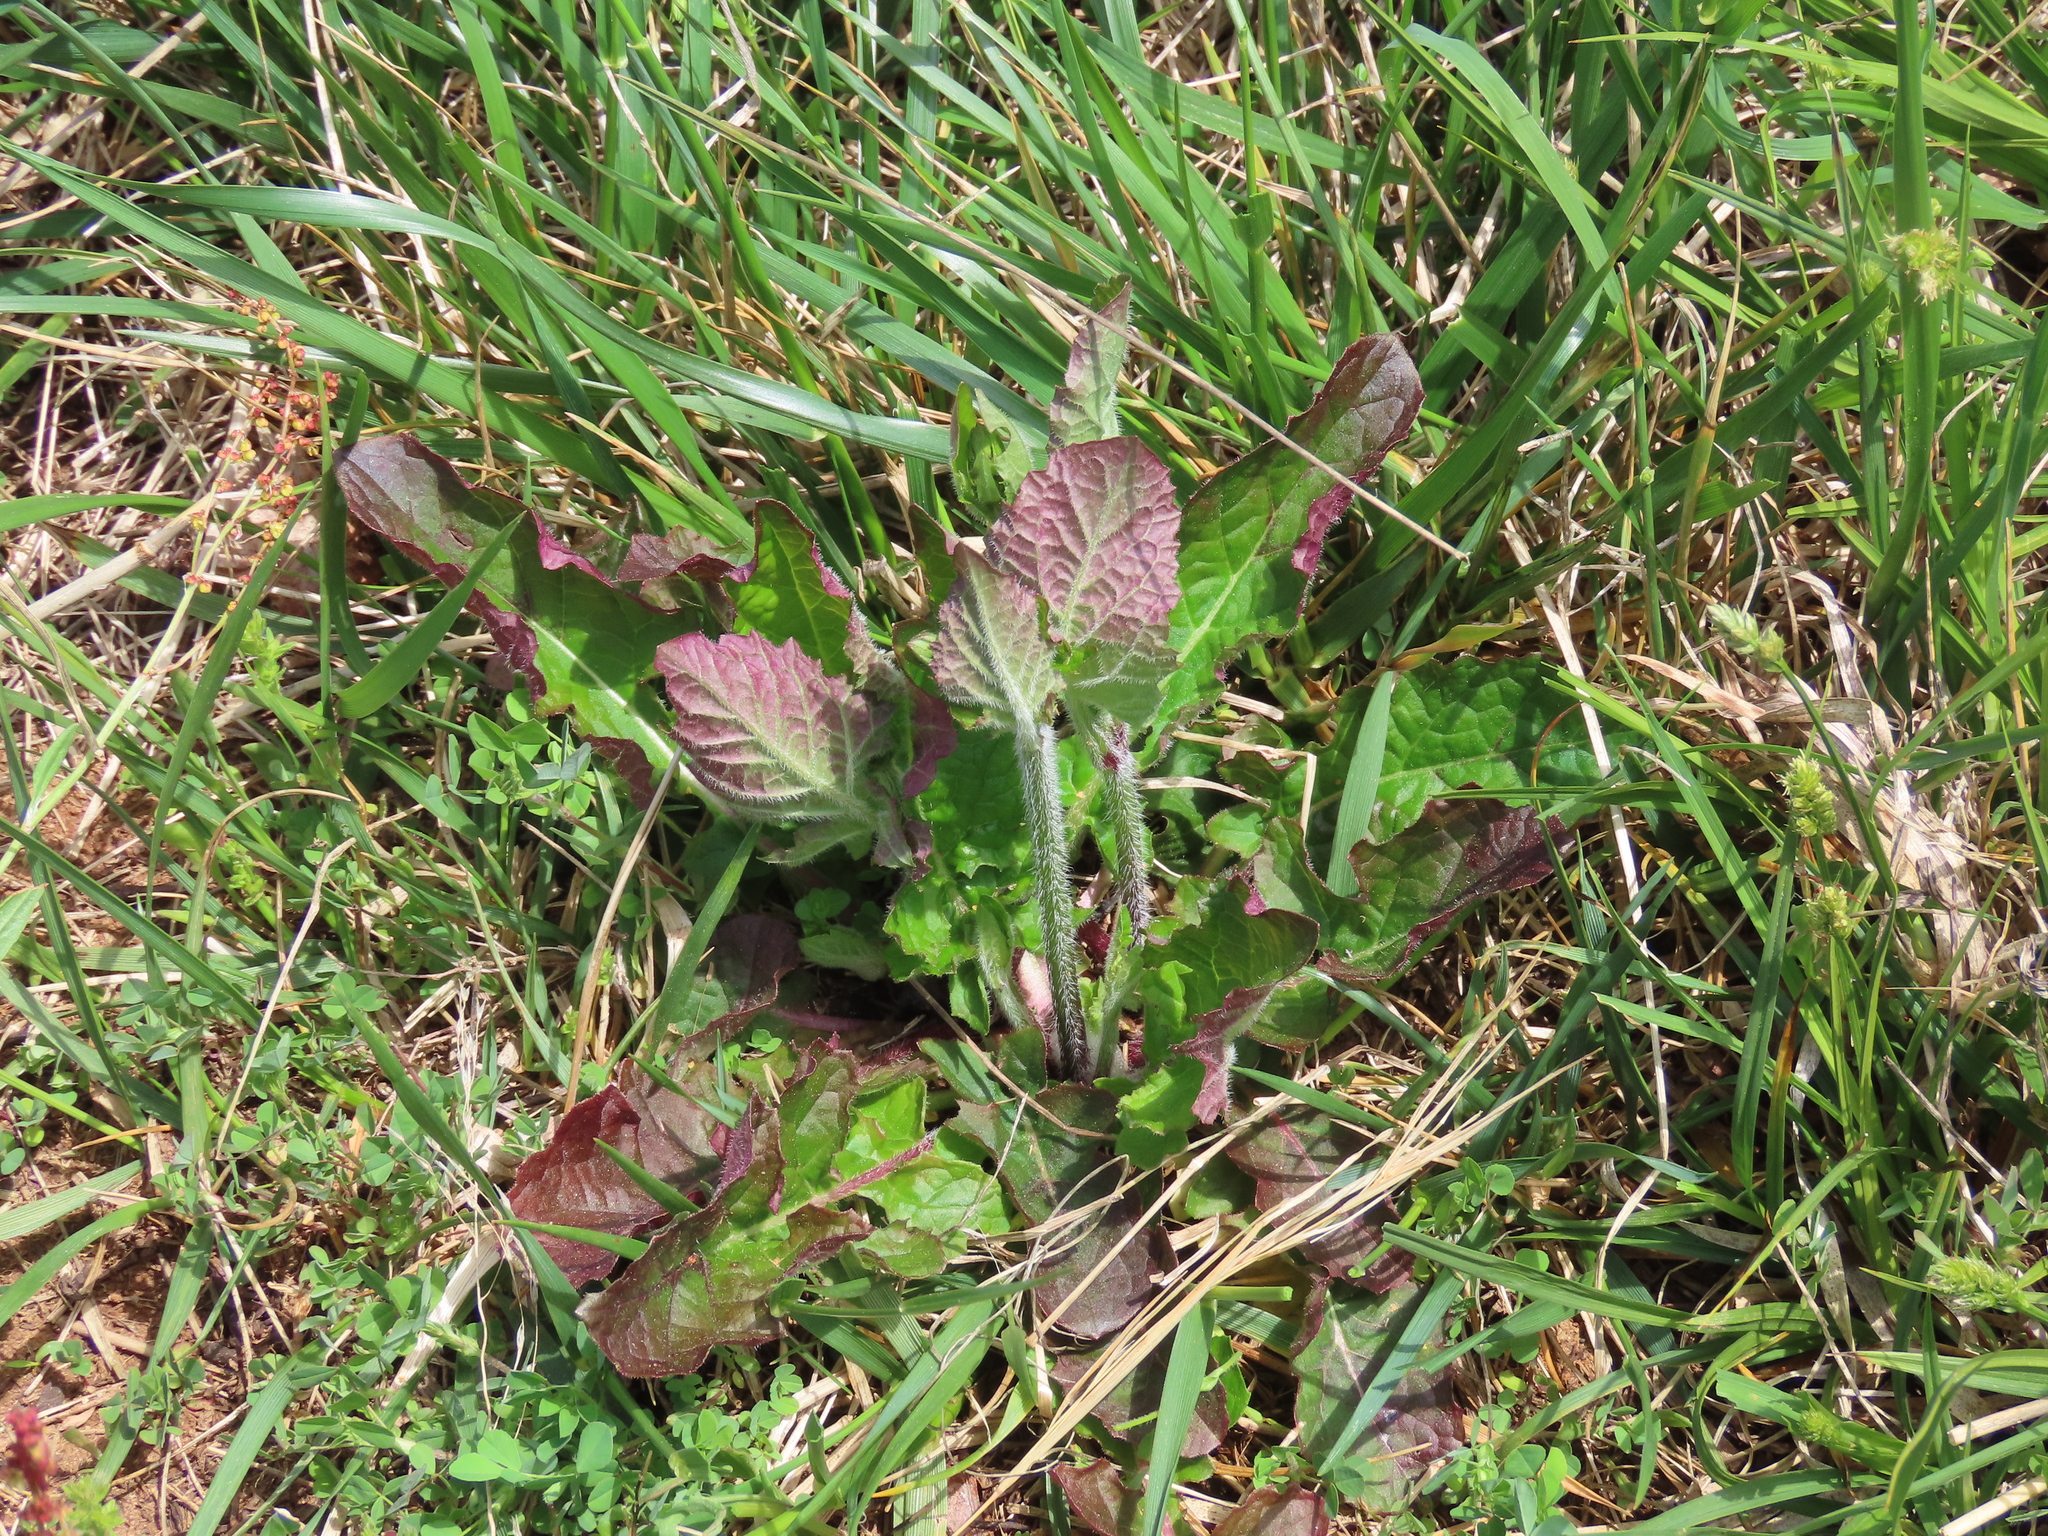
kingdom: Plantae
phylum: Tracheophyta
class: Magnoliopsida
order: Lamiales
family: Lamiaceae
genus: Salvia
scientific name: Salvia lyrata
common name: Cancerweed
